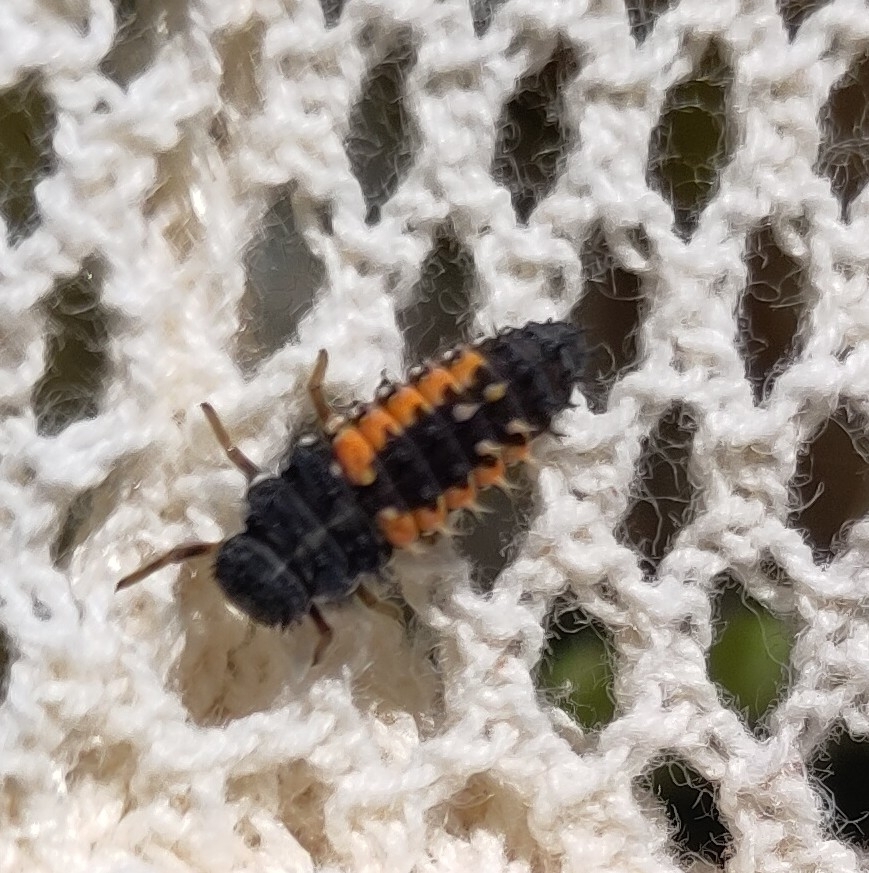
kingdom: Animalia
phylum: Arthropoda
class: Insecta
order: Coleoptera
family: Coccinellidae
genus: Harmonia
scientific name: Harmonia axyridis
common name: Harlequin ladybird
